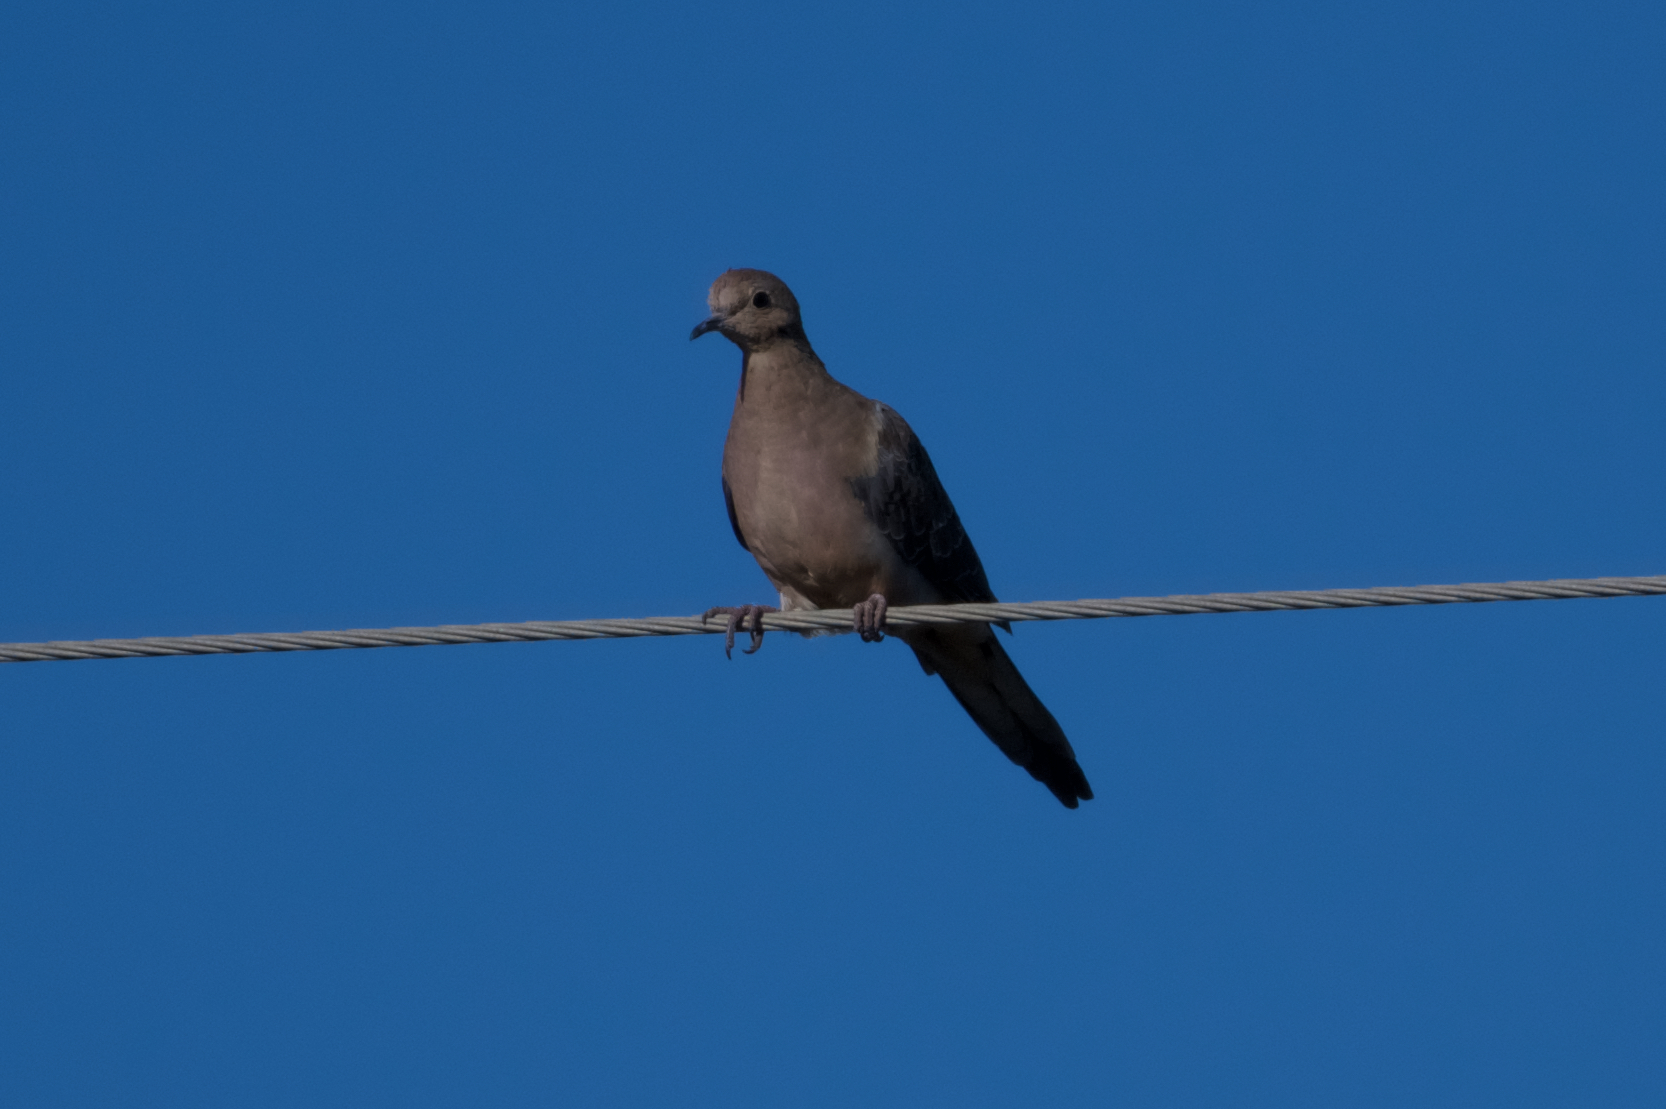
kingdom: Animalia
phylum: Chordata
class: Aves
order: Columbiformes
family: Columbidae
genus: Zenaida
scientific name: Zenaida macroura
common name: Mourning dove
